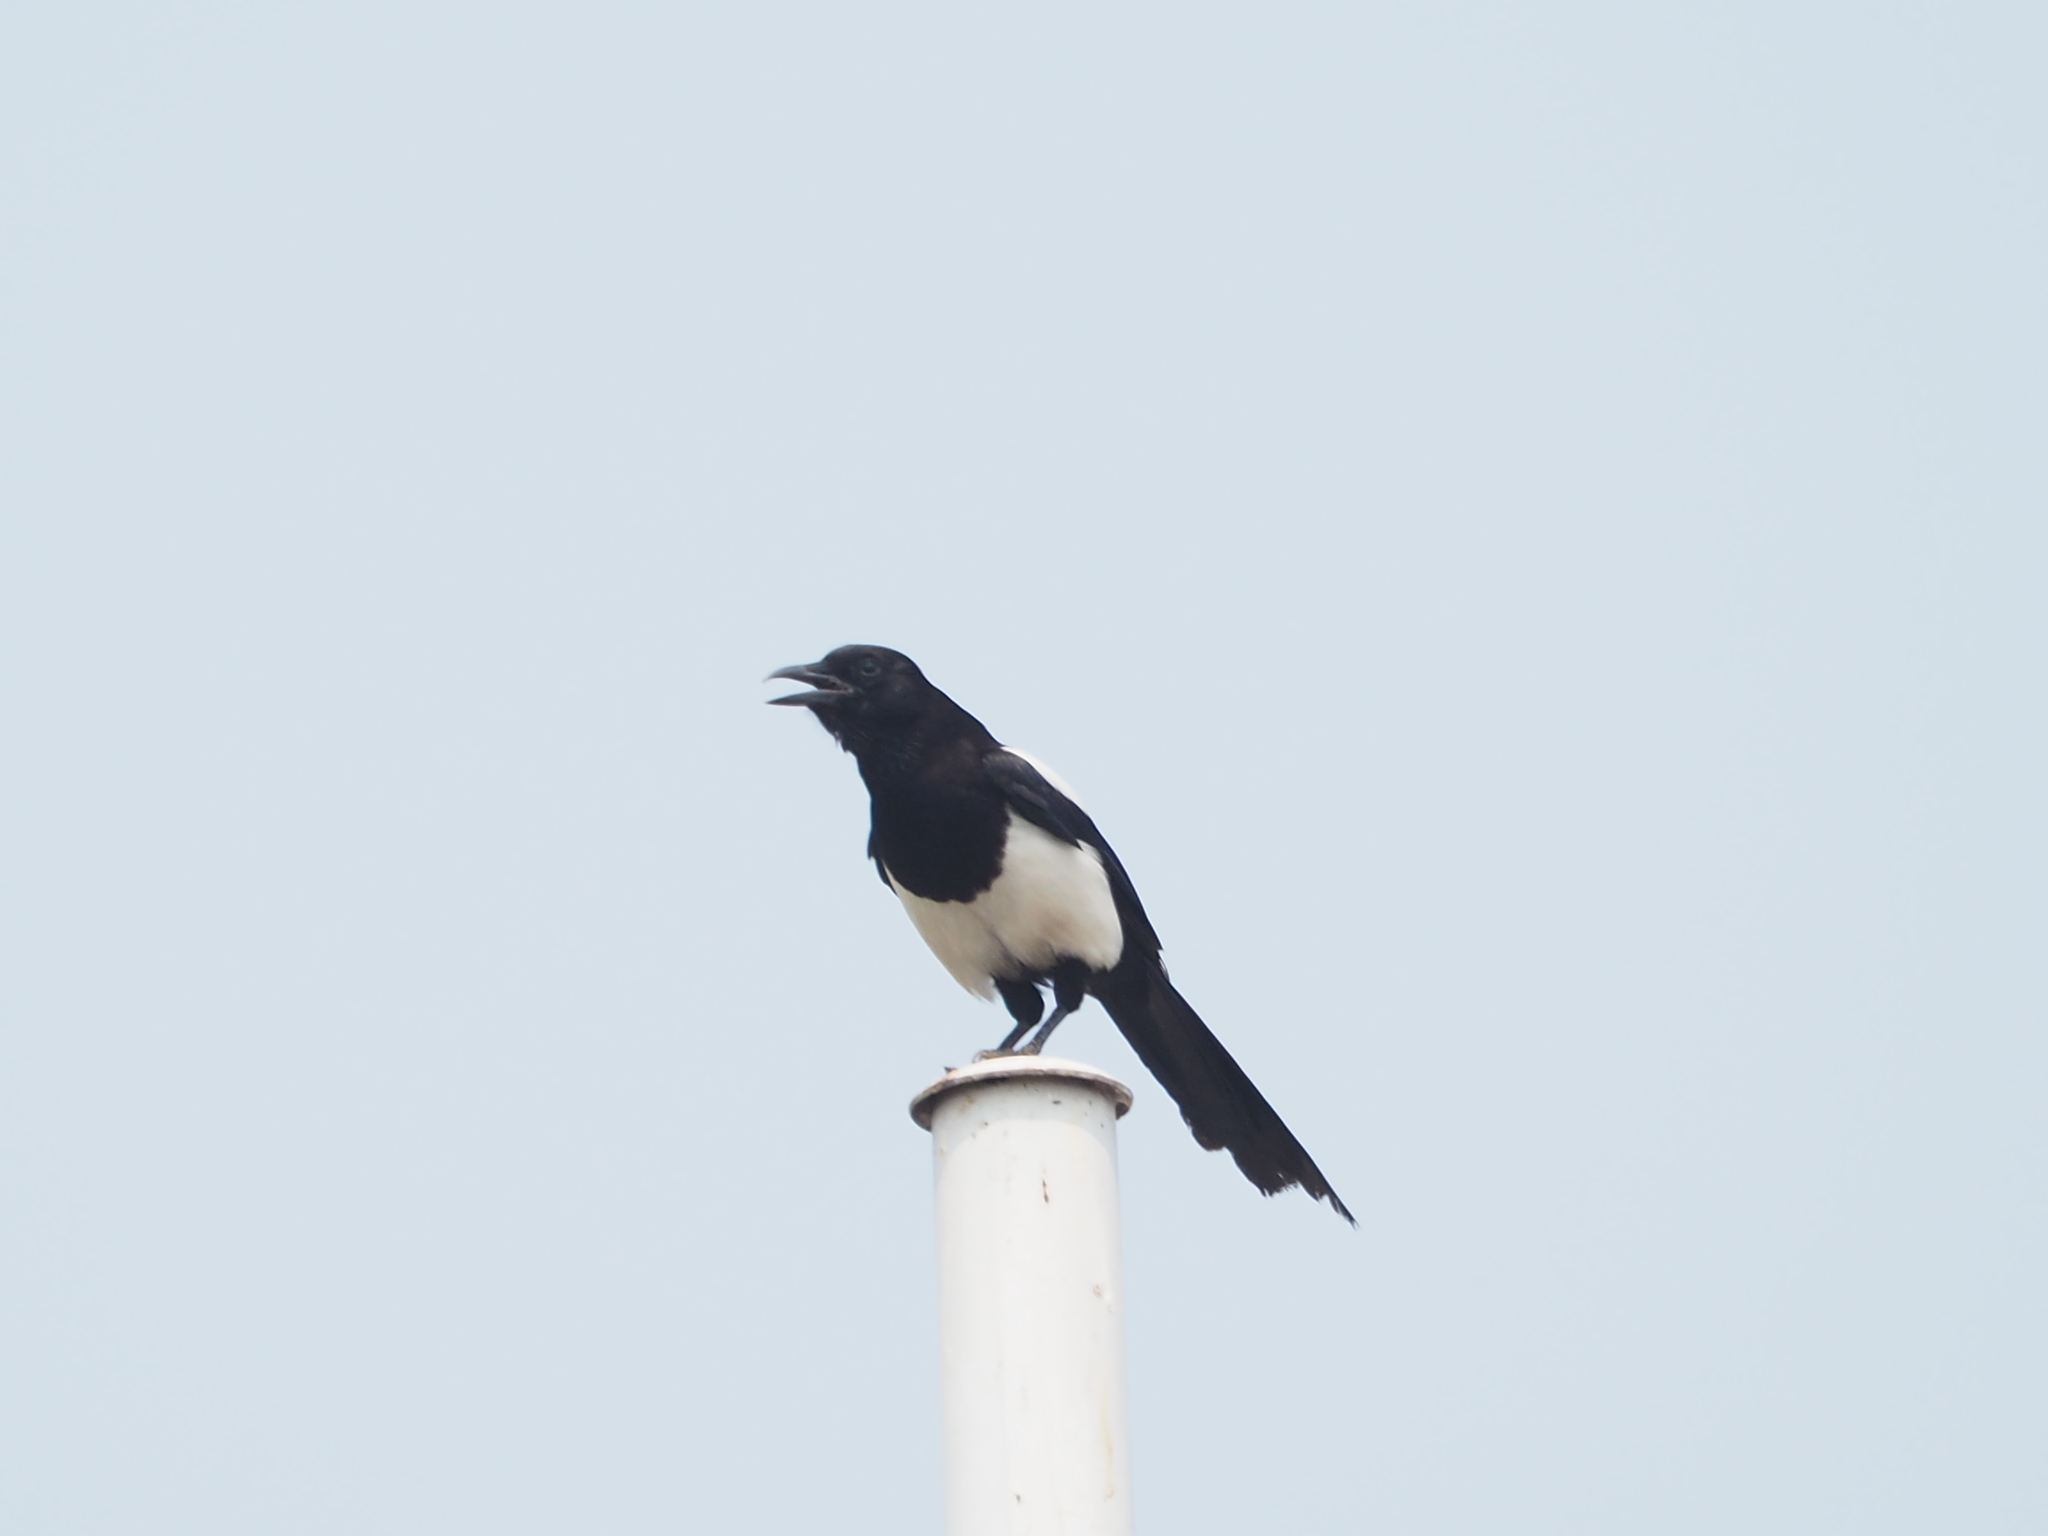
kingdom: Animalia
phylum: Chordata
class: Aves
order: Passeriformes
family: Corvidae
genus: Pica
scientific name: Pica serica
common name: Oriental magpie
